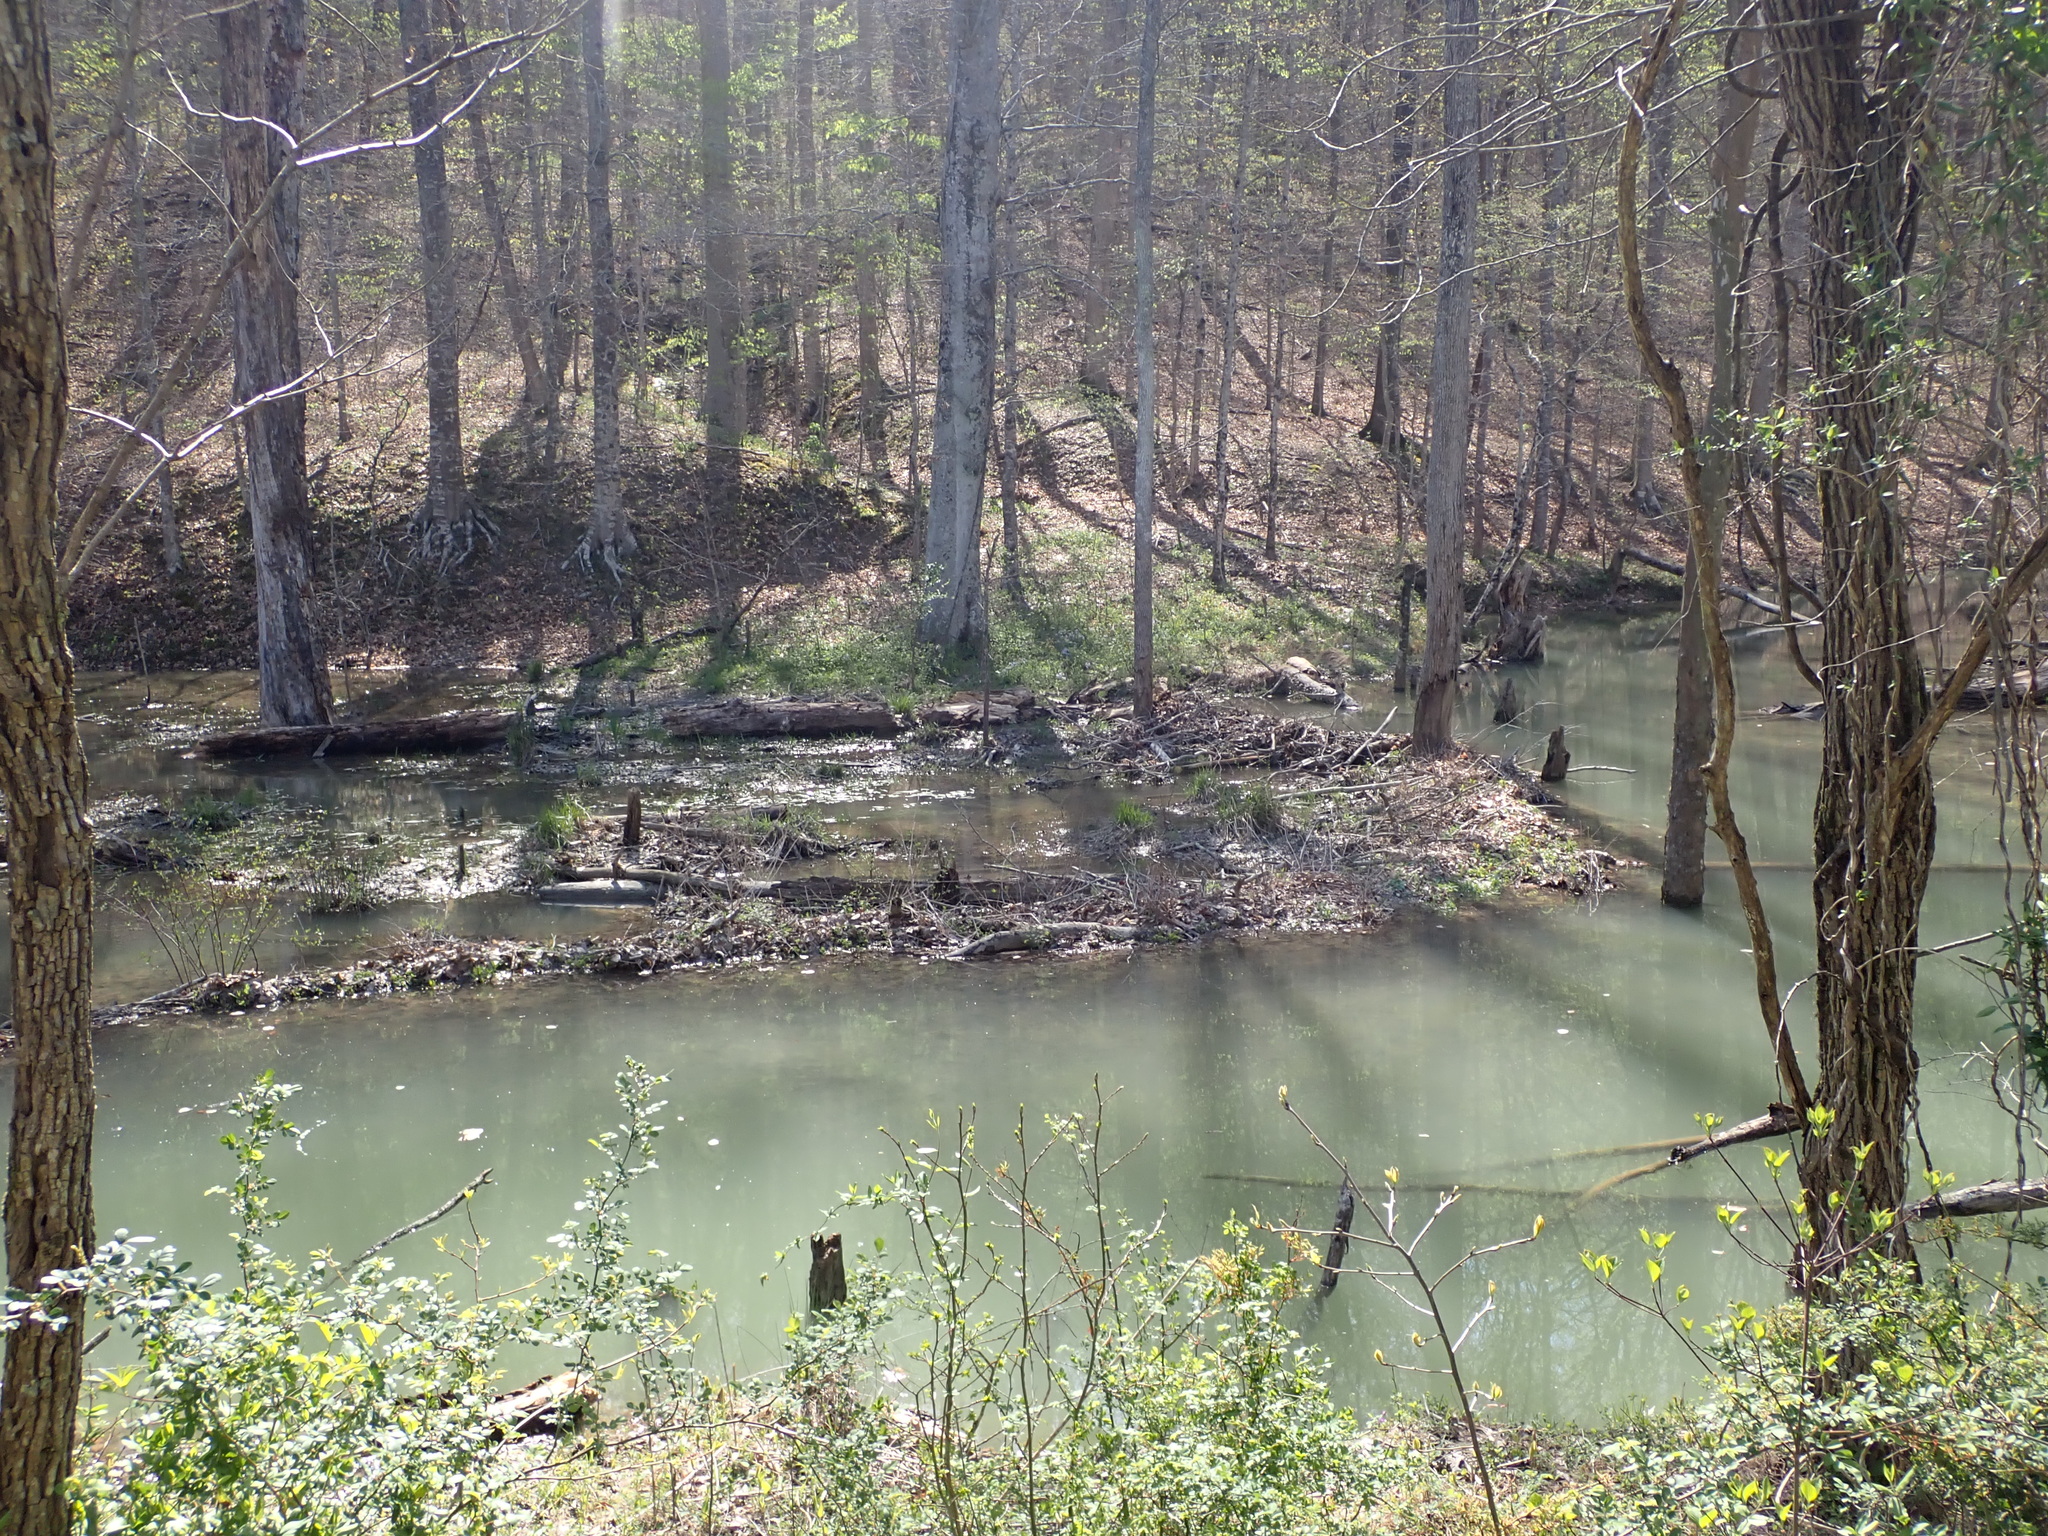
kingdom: Animalia
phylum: Chordata
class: Mammalia
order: Rodentia
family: Castoridae
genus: Castor
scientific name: Castor canadensis
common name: American beaver
